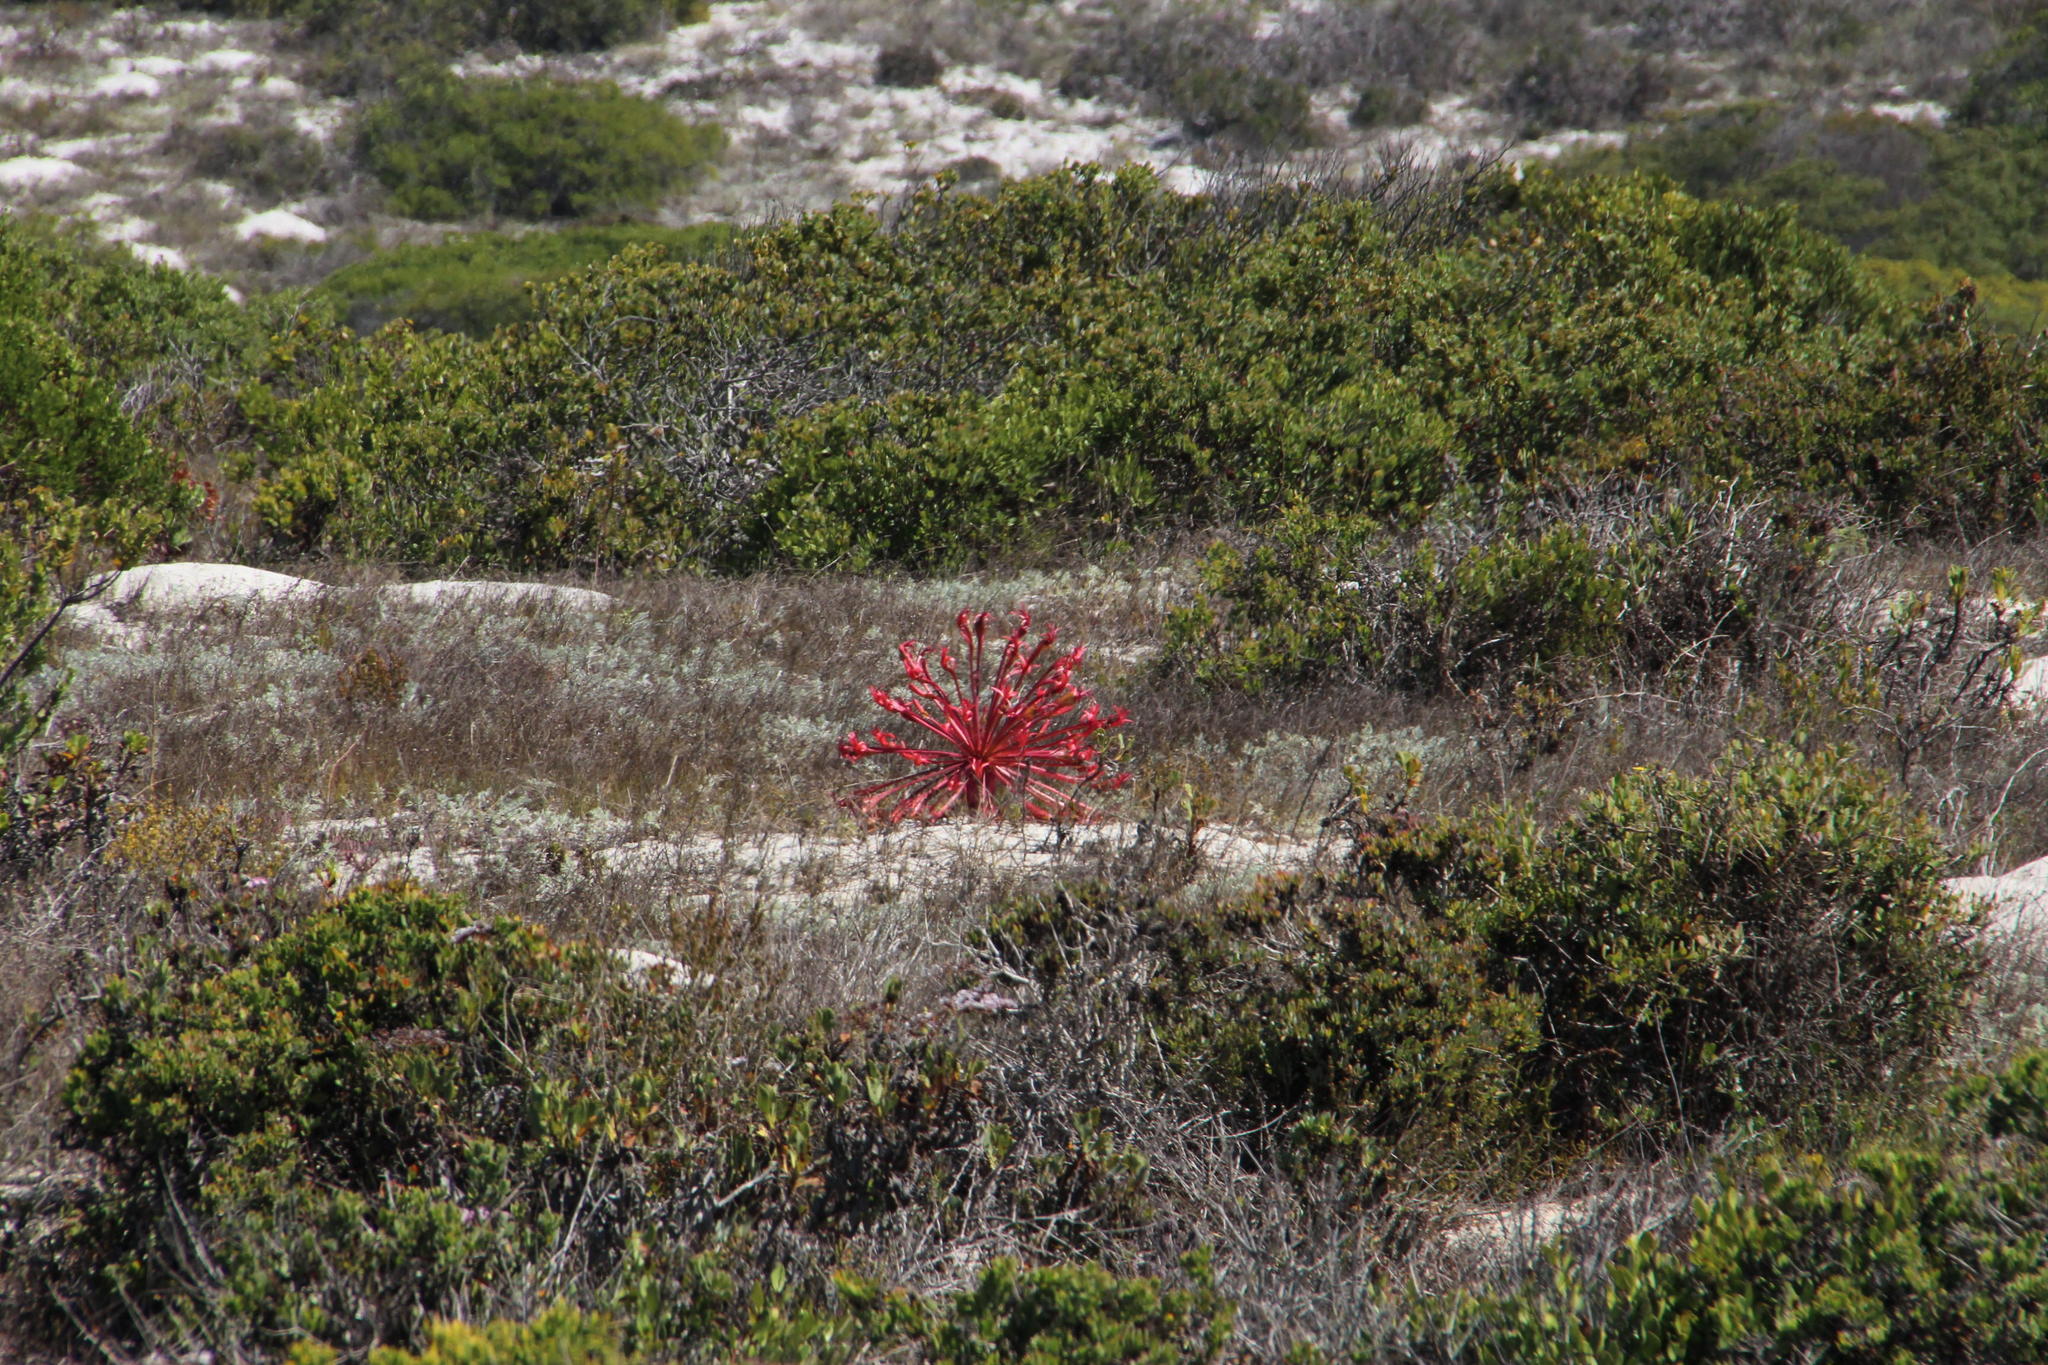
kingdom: Plantae
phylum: Tracheophyta
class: Liliopsida
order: Asparagales
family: Amaryllidaceae
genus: Brunsvigia
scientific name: Brunsvigia orientalis
